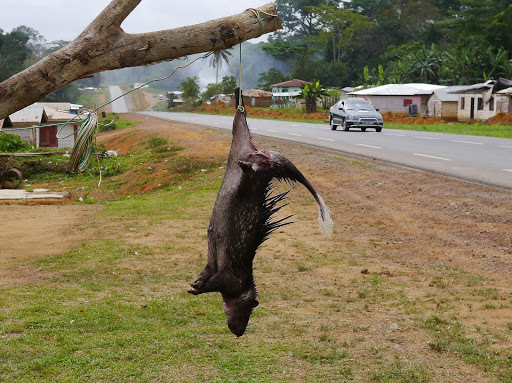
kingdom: Animalia
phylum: Chordata
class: Mammalia
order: Rodentia
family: Hystricidae
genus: Atherurus
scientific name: Atherurus africanus
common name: African brush-tailed porcupine
